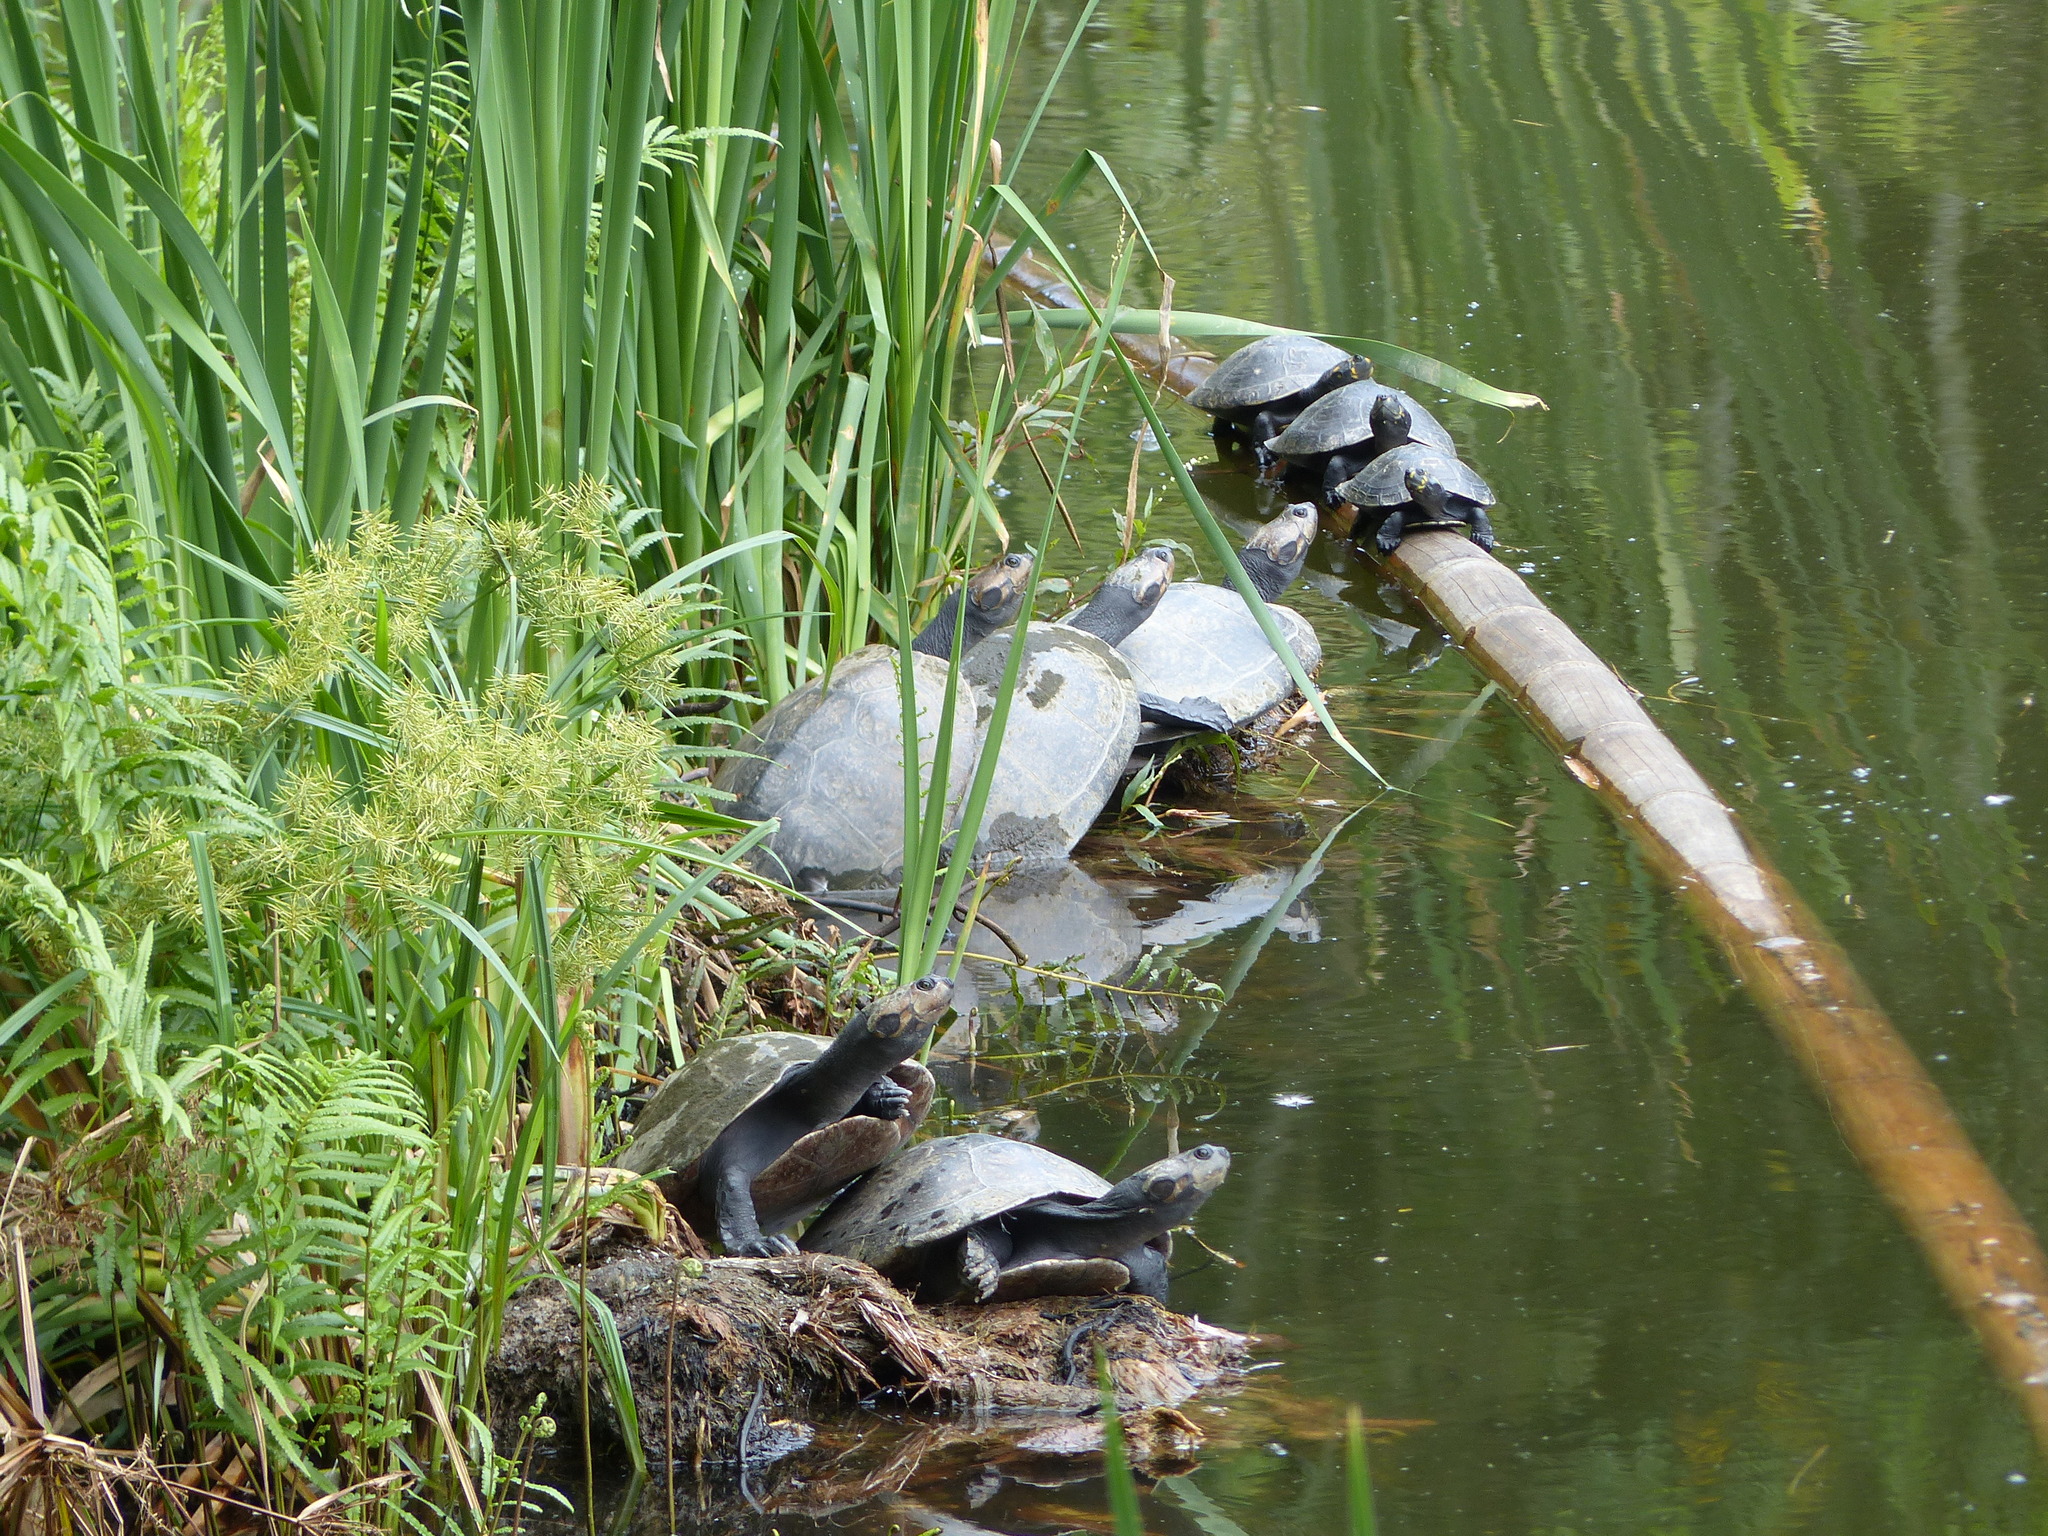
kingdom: Animalia
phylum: Chordata
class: Testudines
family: Podocnemididae
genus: Podocnemis
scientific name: Podocnemis unifilis
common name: Yellow-spotted amazon river turtle
